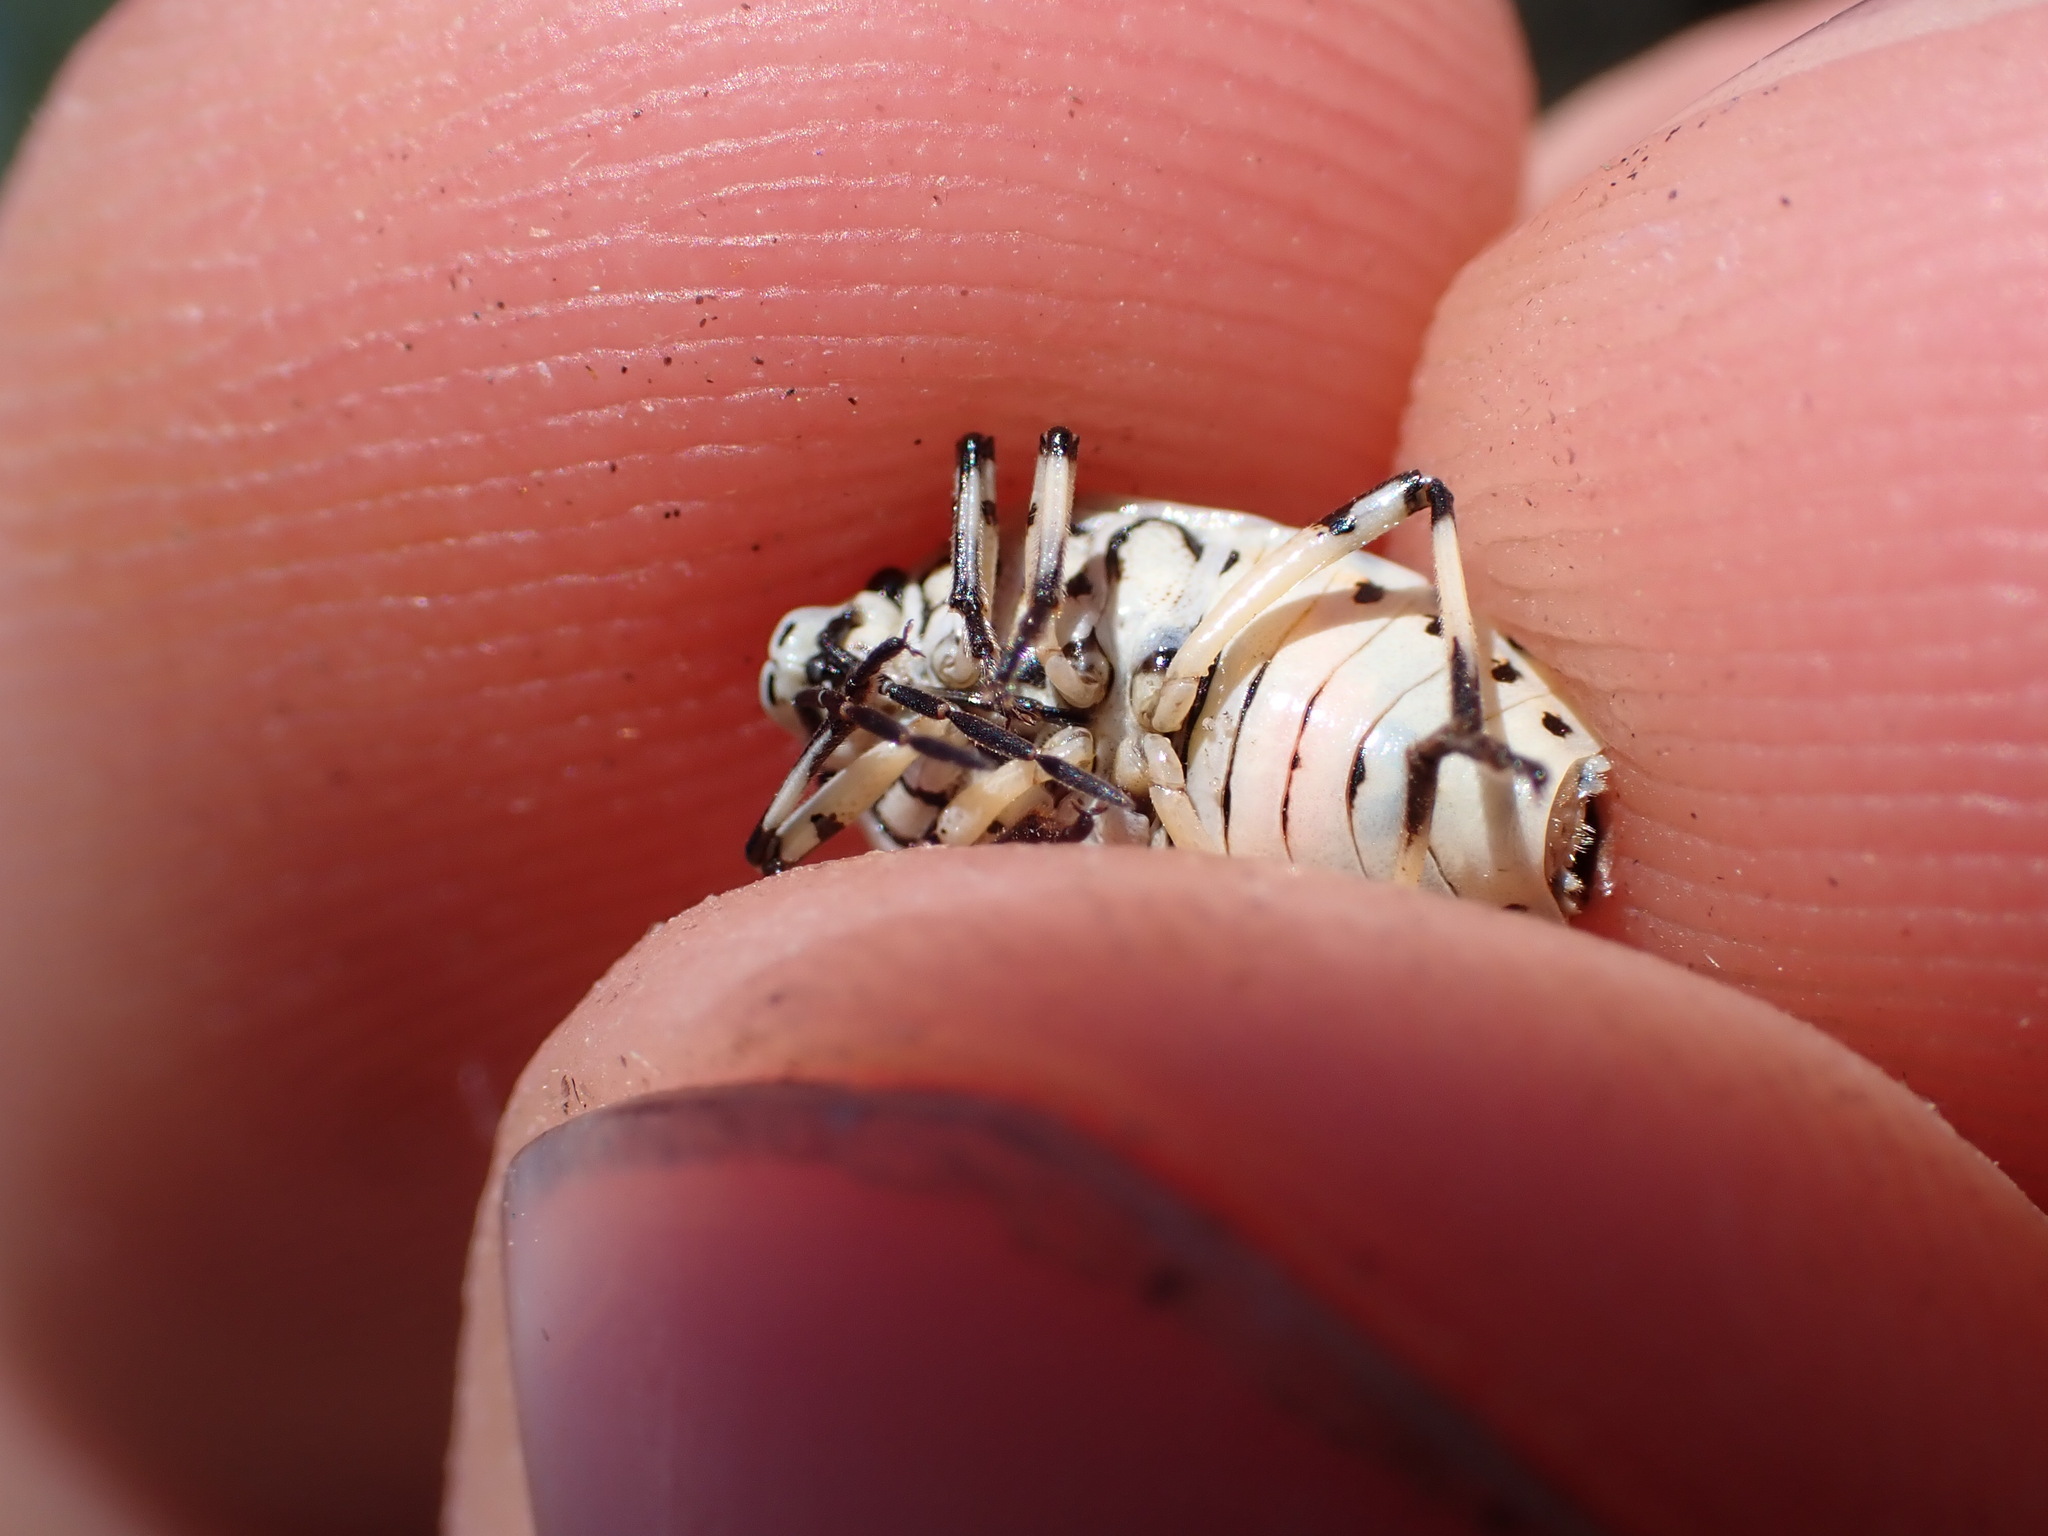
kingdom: Animalia
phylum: Arthropoda
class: Insecta
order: Hemiptera
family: Pentatomidae
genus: Eurydema
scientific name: Eurydema ornata
